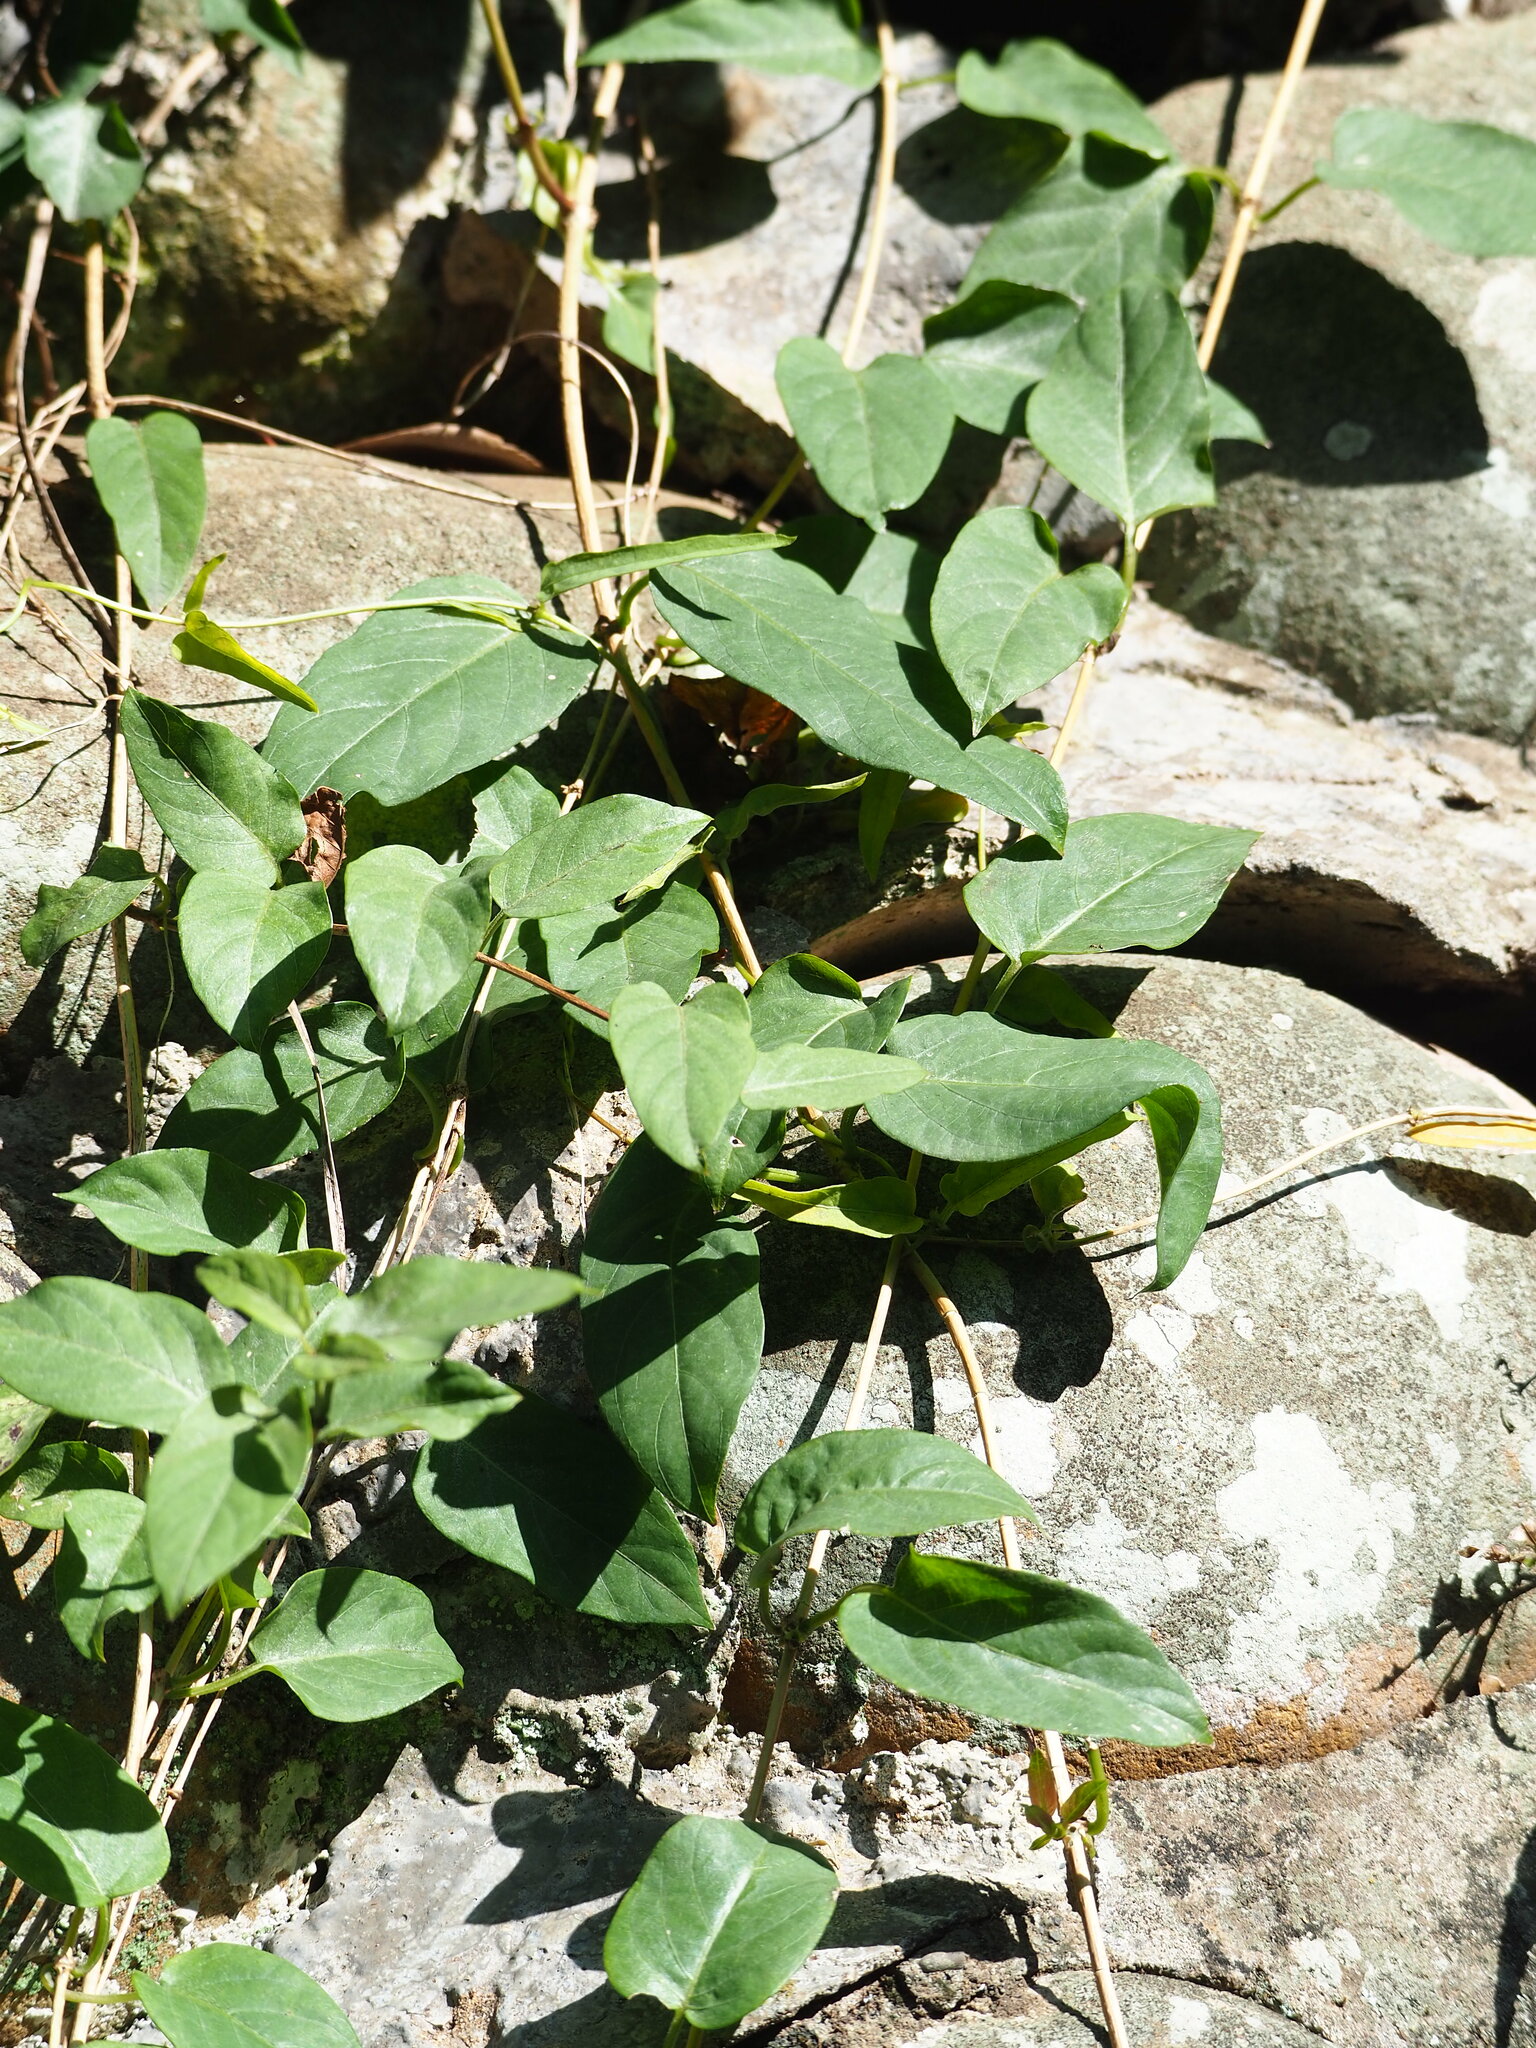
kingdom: Plantae
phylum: Tracheophyta
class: Magnoliopsida
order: Gentianales
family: Rubiaceae
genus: Paederia
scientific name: Paederia foetida
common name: Stinkvine
